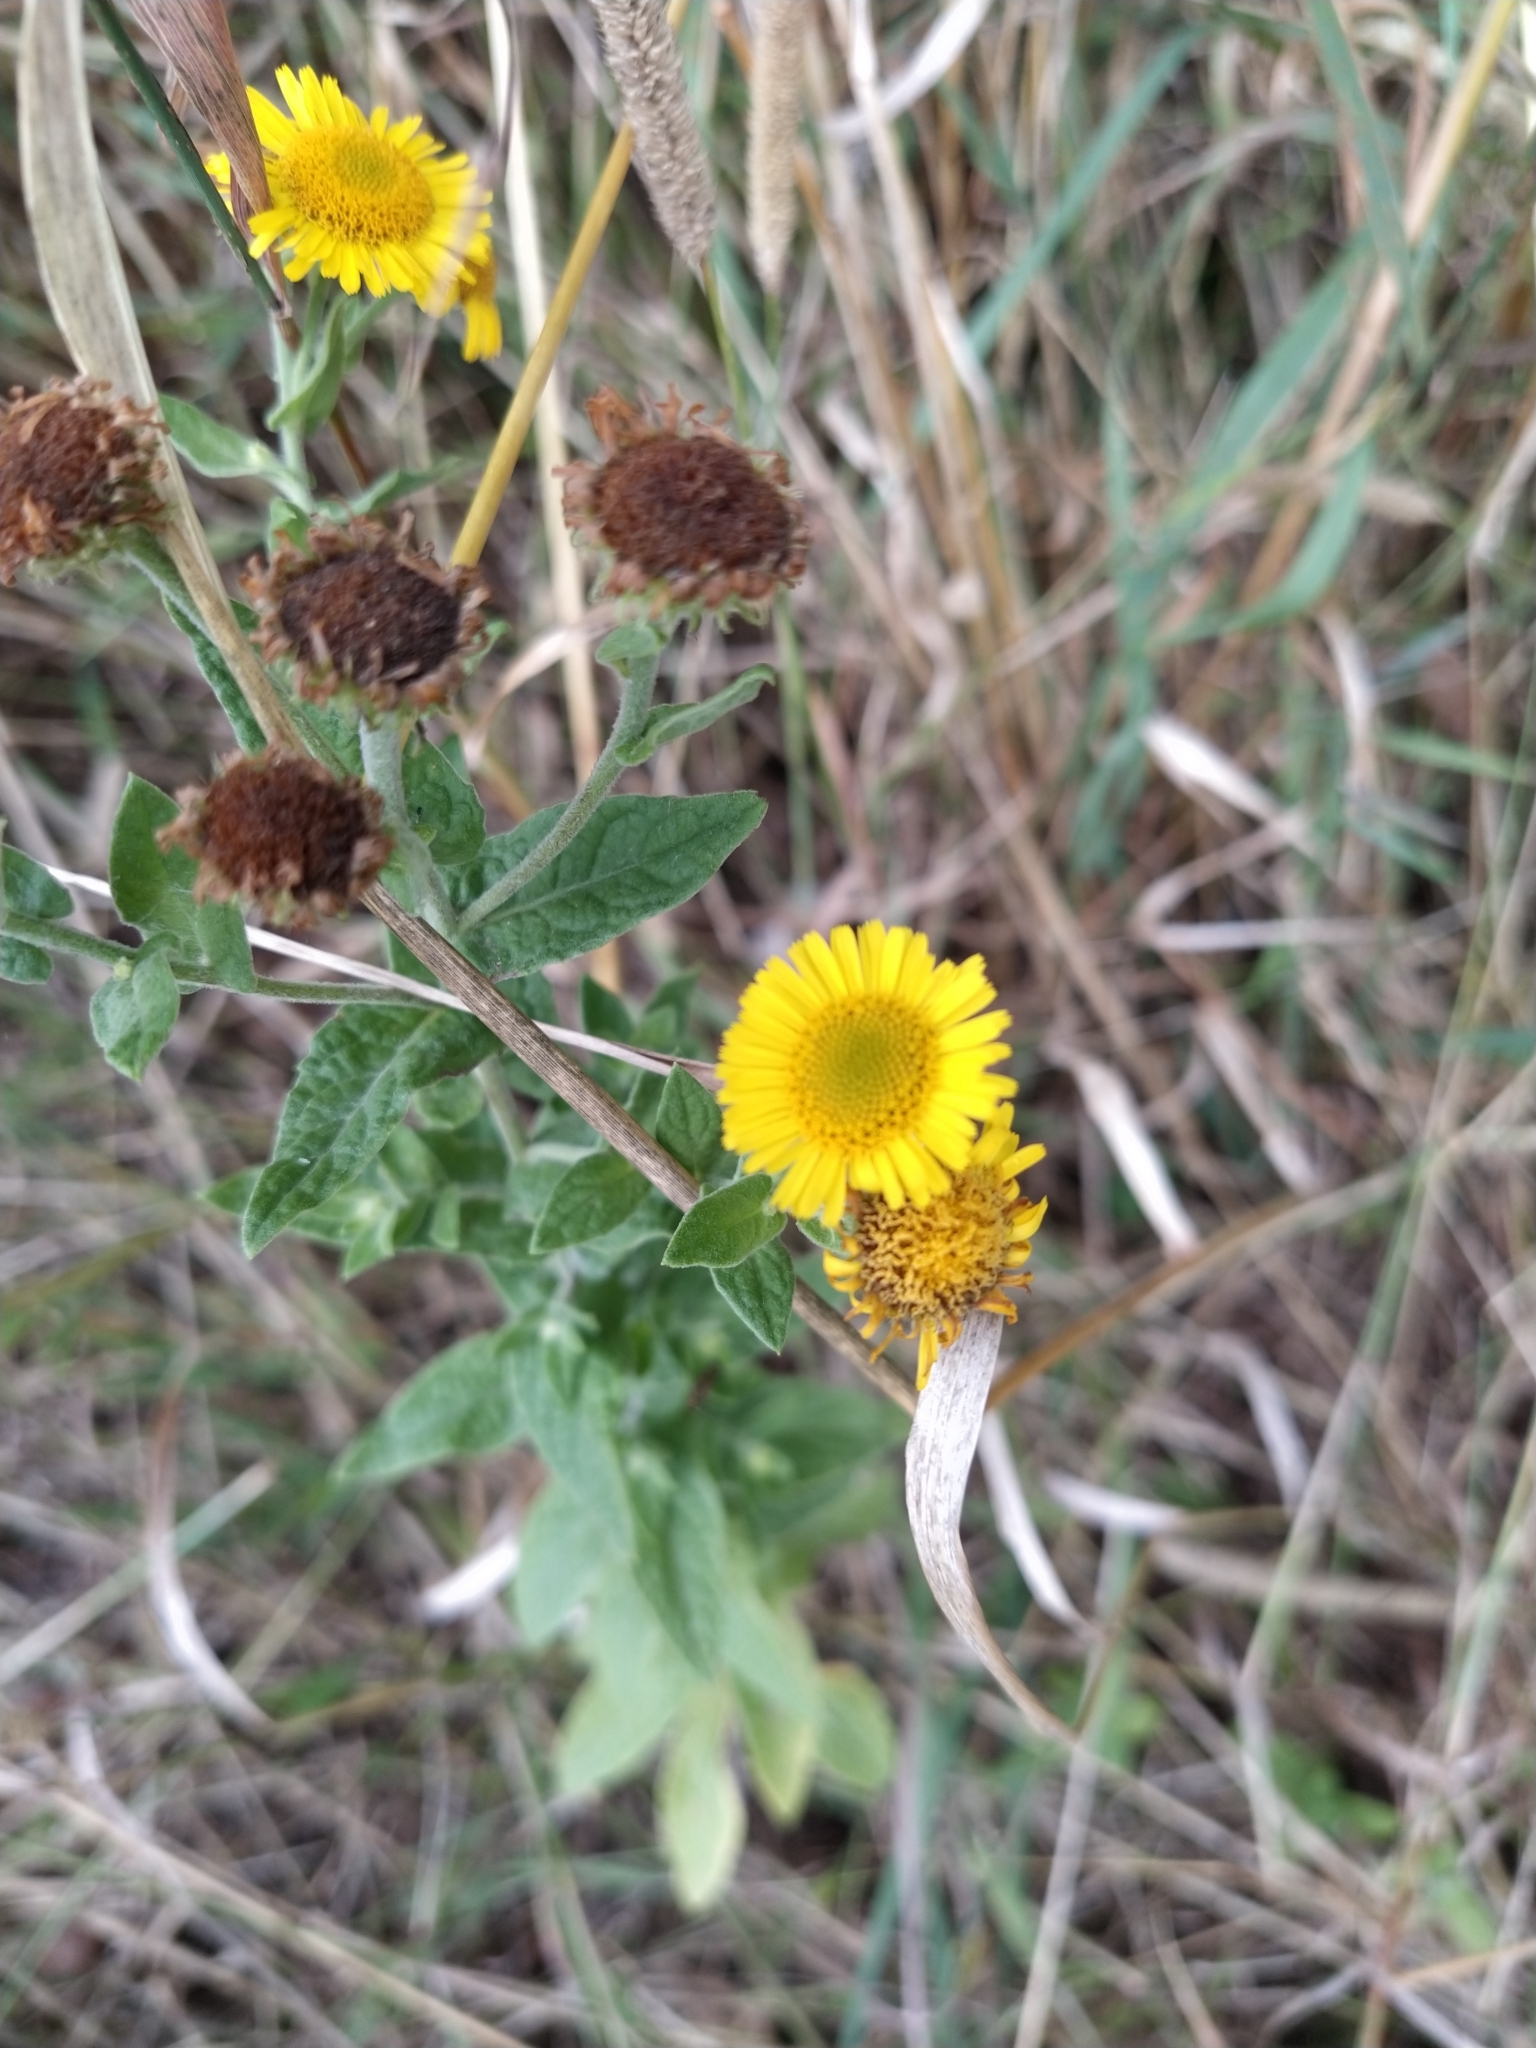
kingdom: Plantae
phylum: Tracheophyta
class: Magnoliopsida
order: Asterales
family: Asteraceae
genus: Pulicaria
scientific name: Pulicaria dysenterica
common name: Common fleabane
